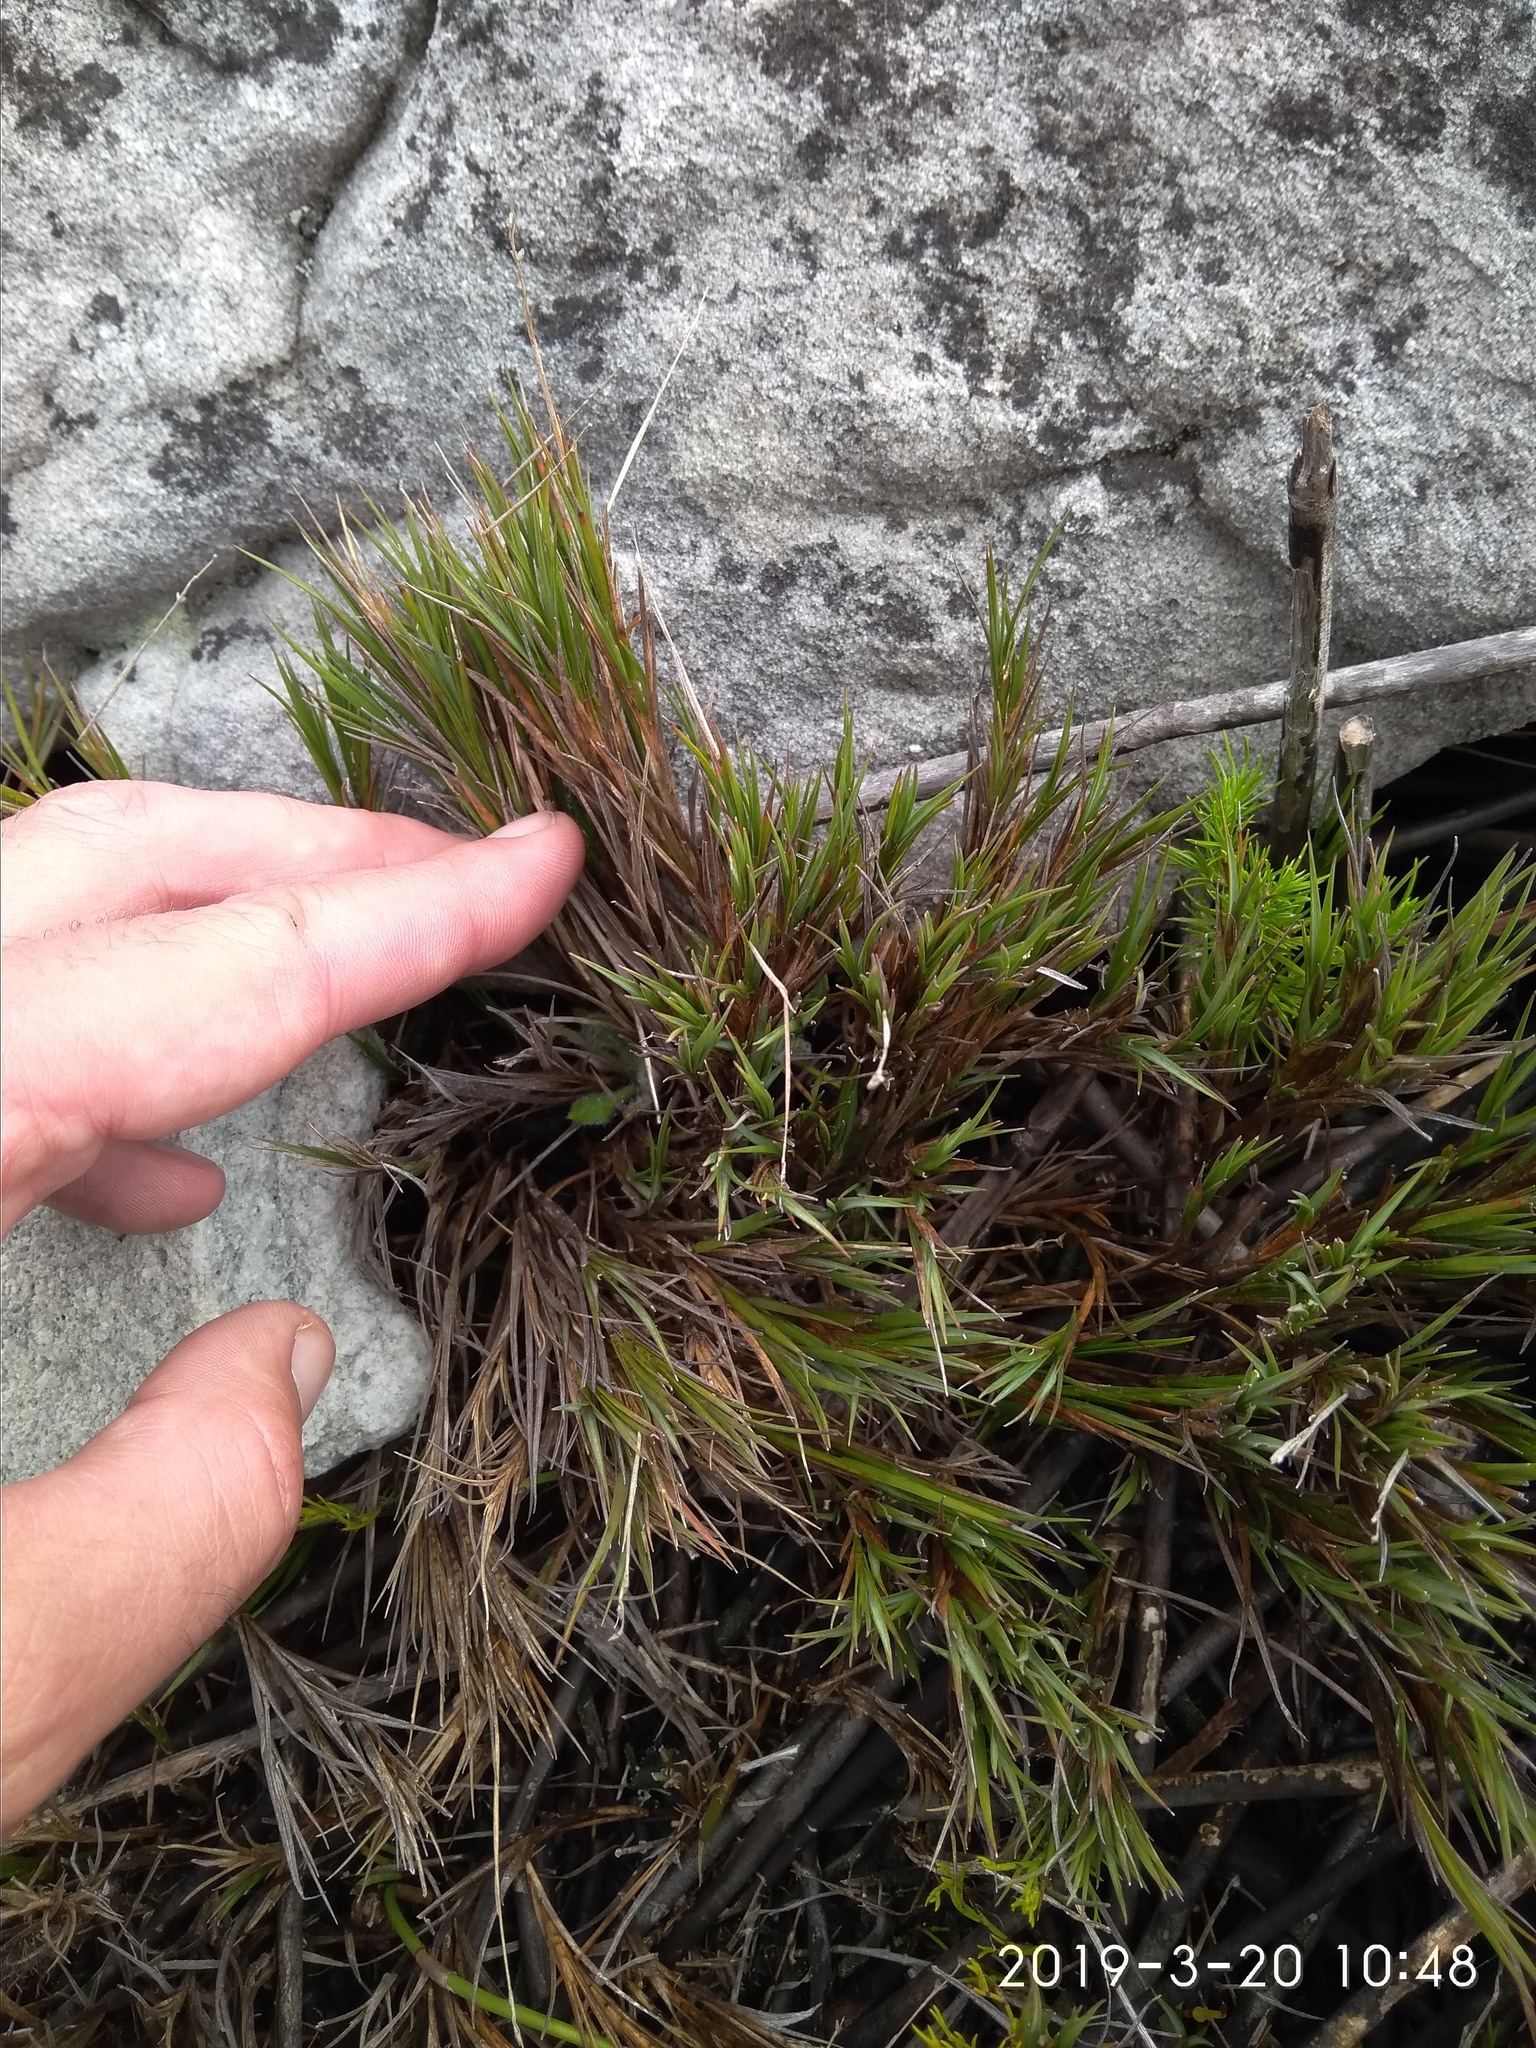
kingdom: Plantae
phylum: Tracheophyta
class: Liliopsida
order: Poales
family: Poaceae
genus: Ehrharta
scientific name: Ehrharta rupestris
